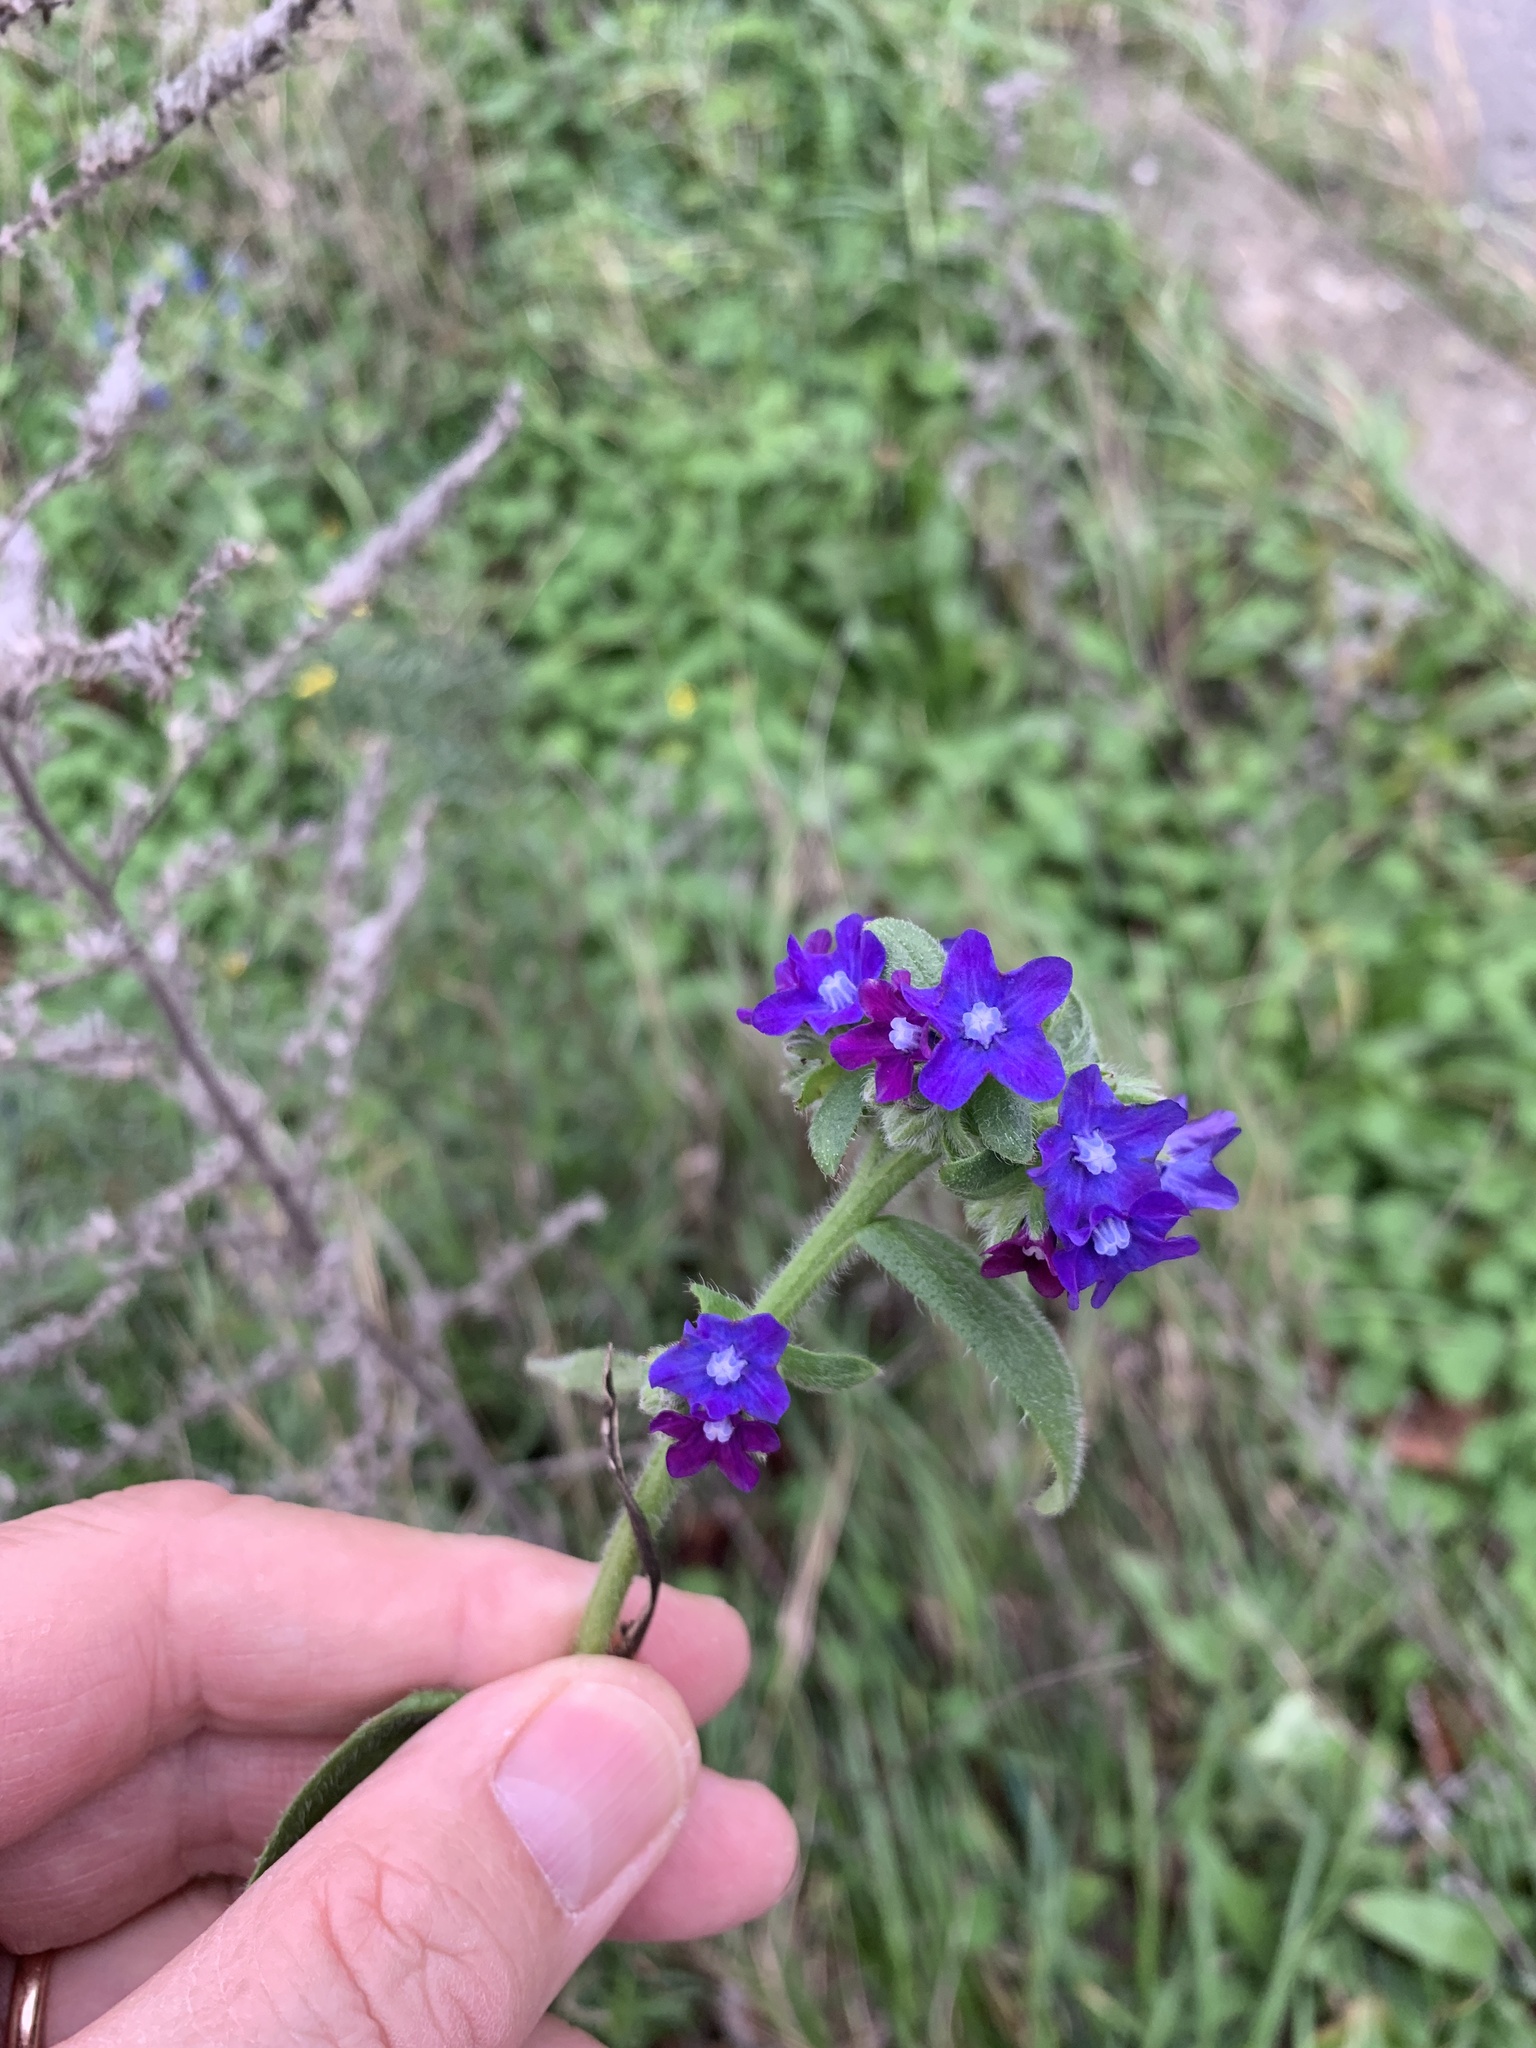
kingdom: Plantae
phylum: Tracheophyta
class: Magnoliopsida
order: Boraginales
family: Boraginaceae
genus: Anchusa
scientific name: Anchusa officinalis
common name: Alkanet
